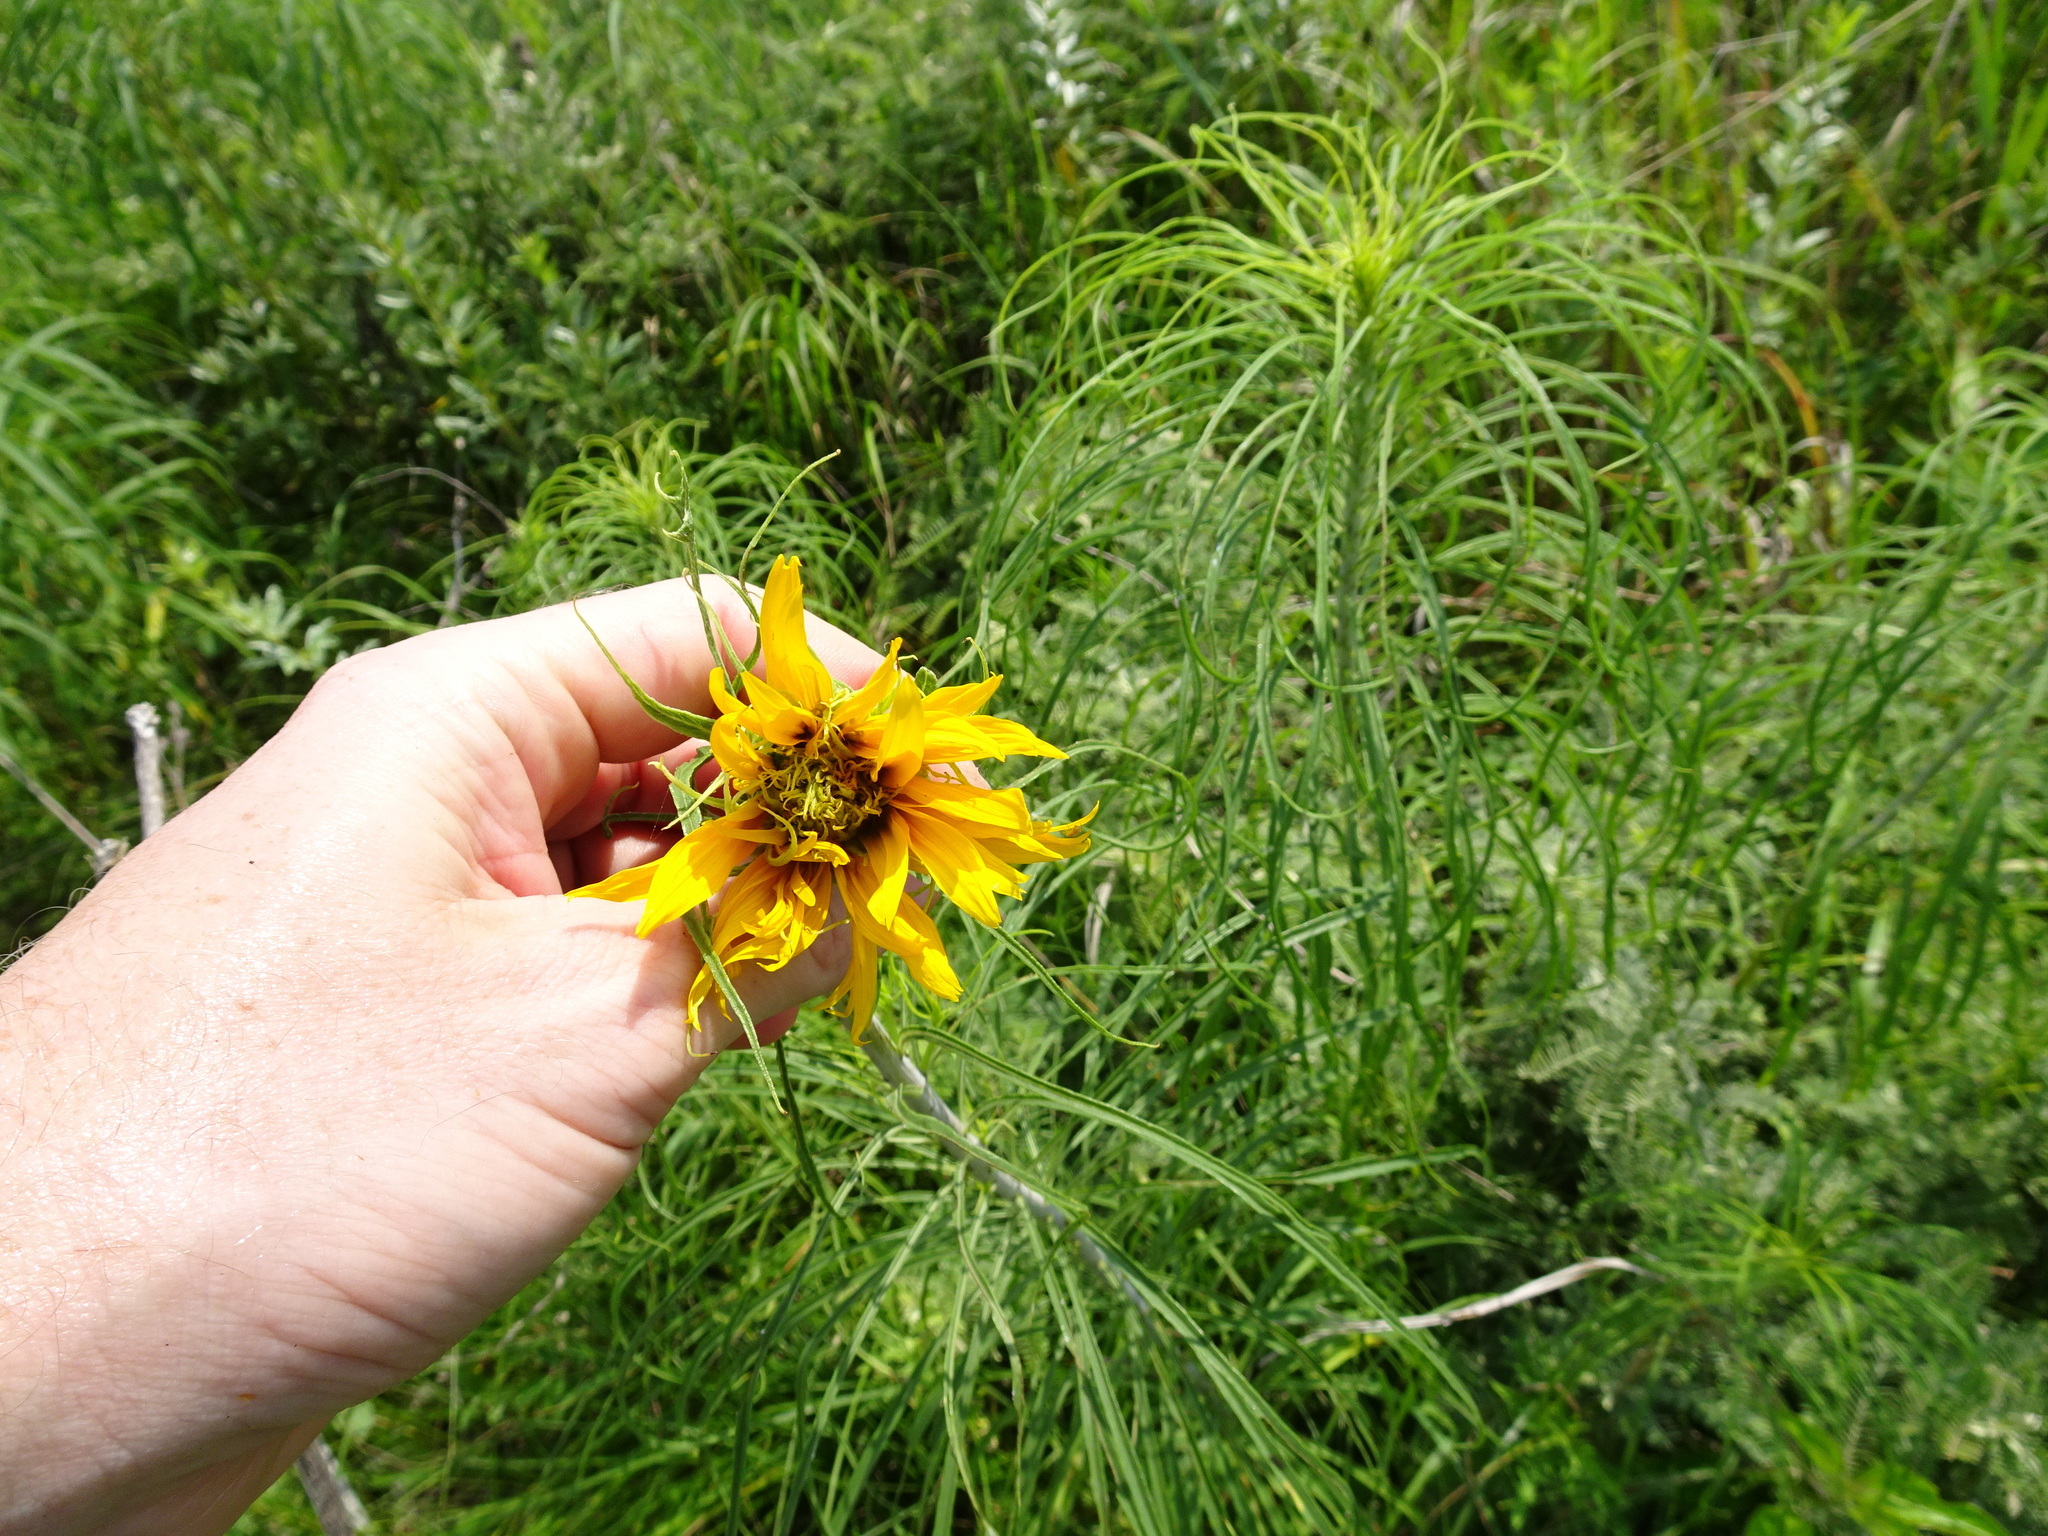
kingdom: Plantae
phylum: Tracheophyta
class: Magnoliopsida
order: Asterales
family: Asteraceae
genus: Helianthus
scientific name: Helianthus salicifolius
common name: Willowleaf sunflower
